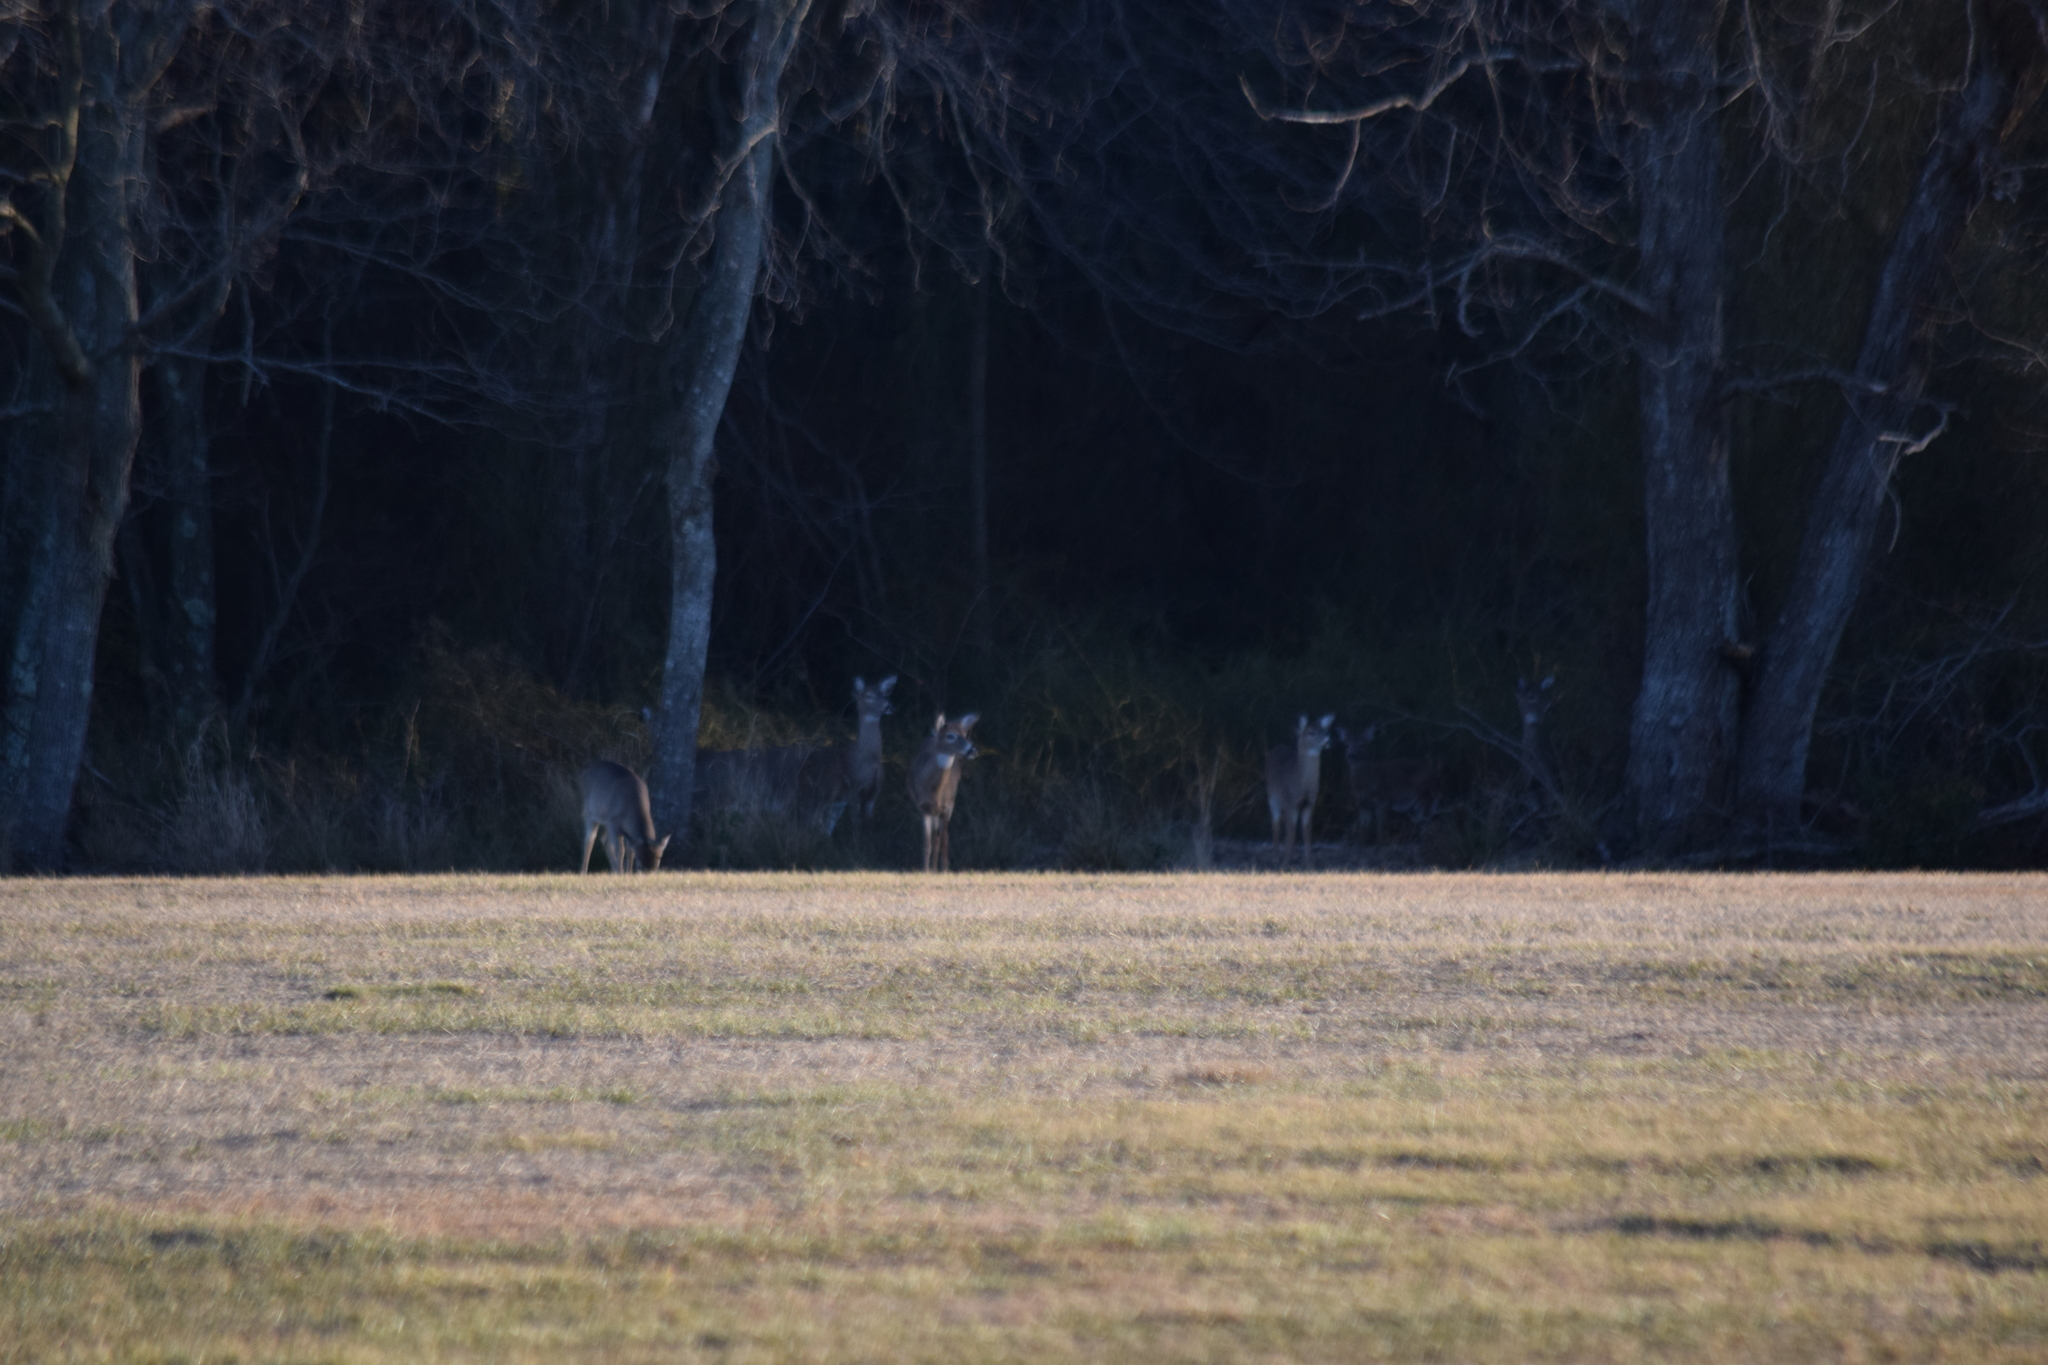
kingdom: Animalia
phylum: Chordata
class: Mammalia
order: Artiodactyla
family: Cervidae
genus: Odocoileus
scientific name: Odocoileus virginianus
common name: White-tailed deer
